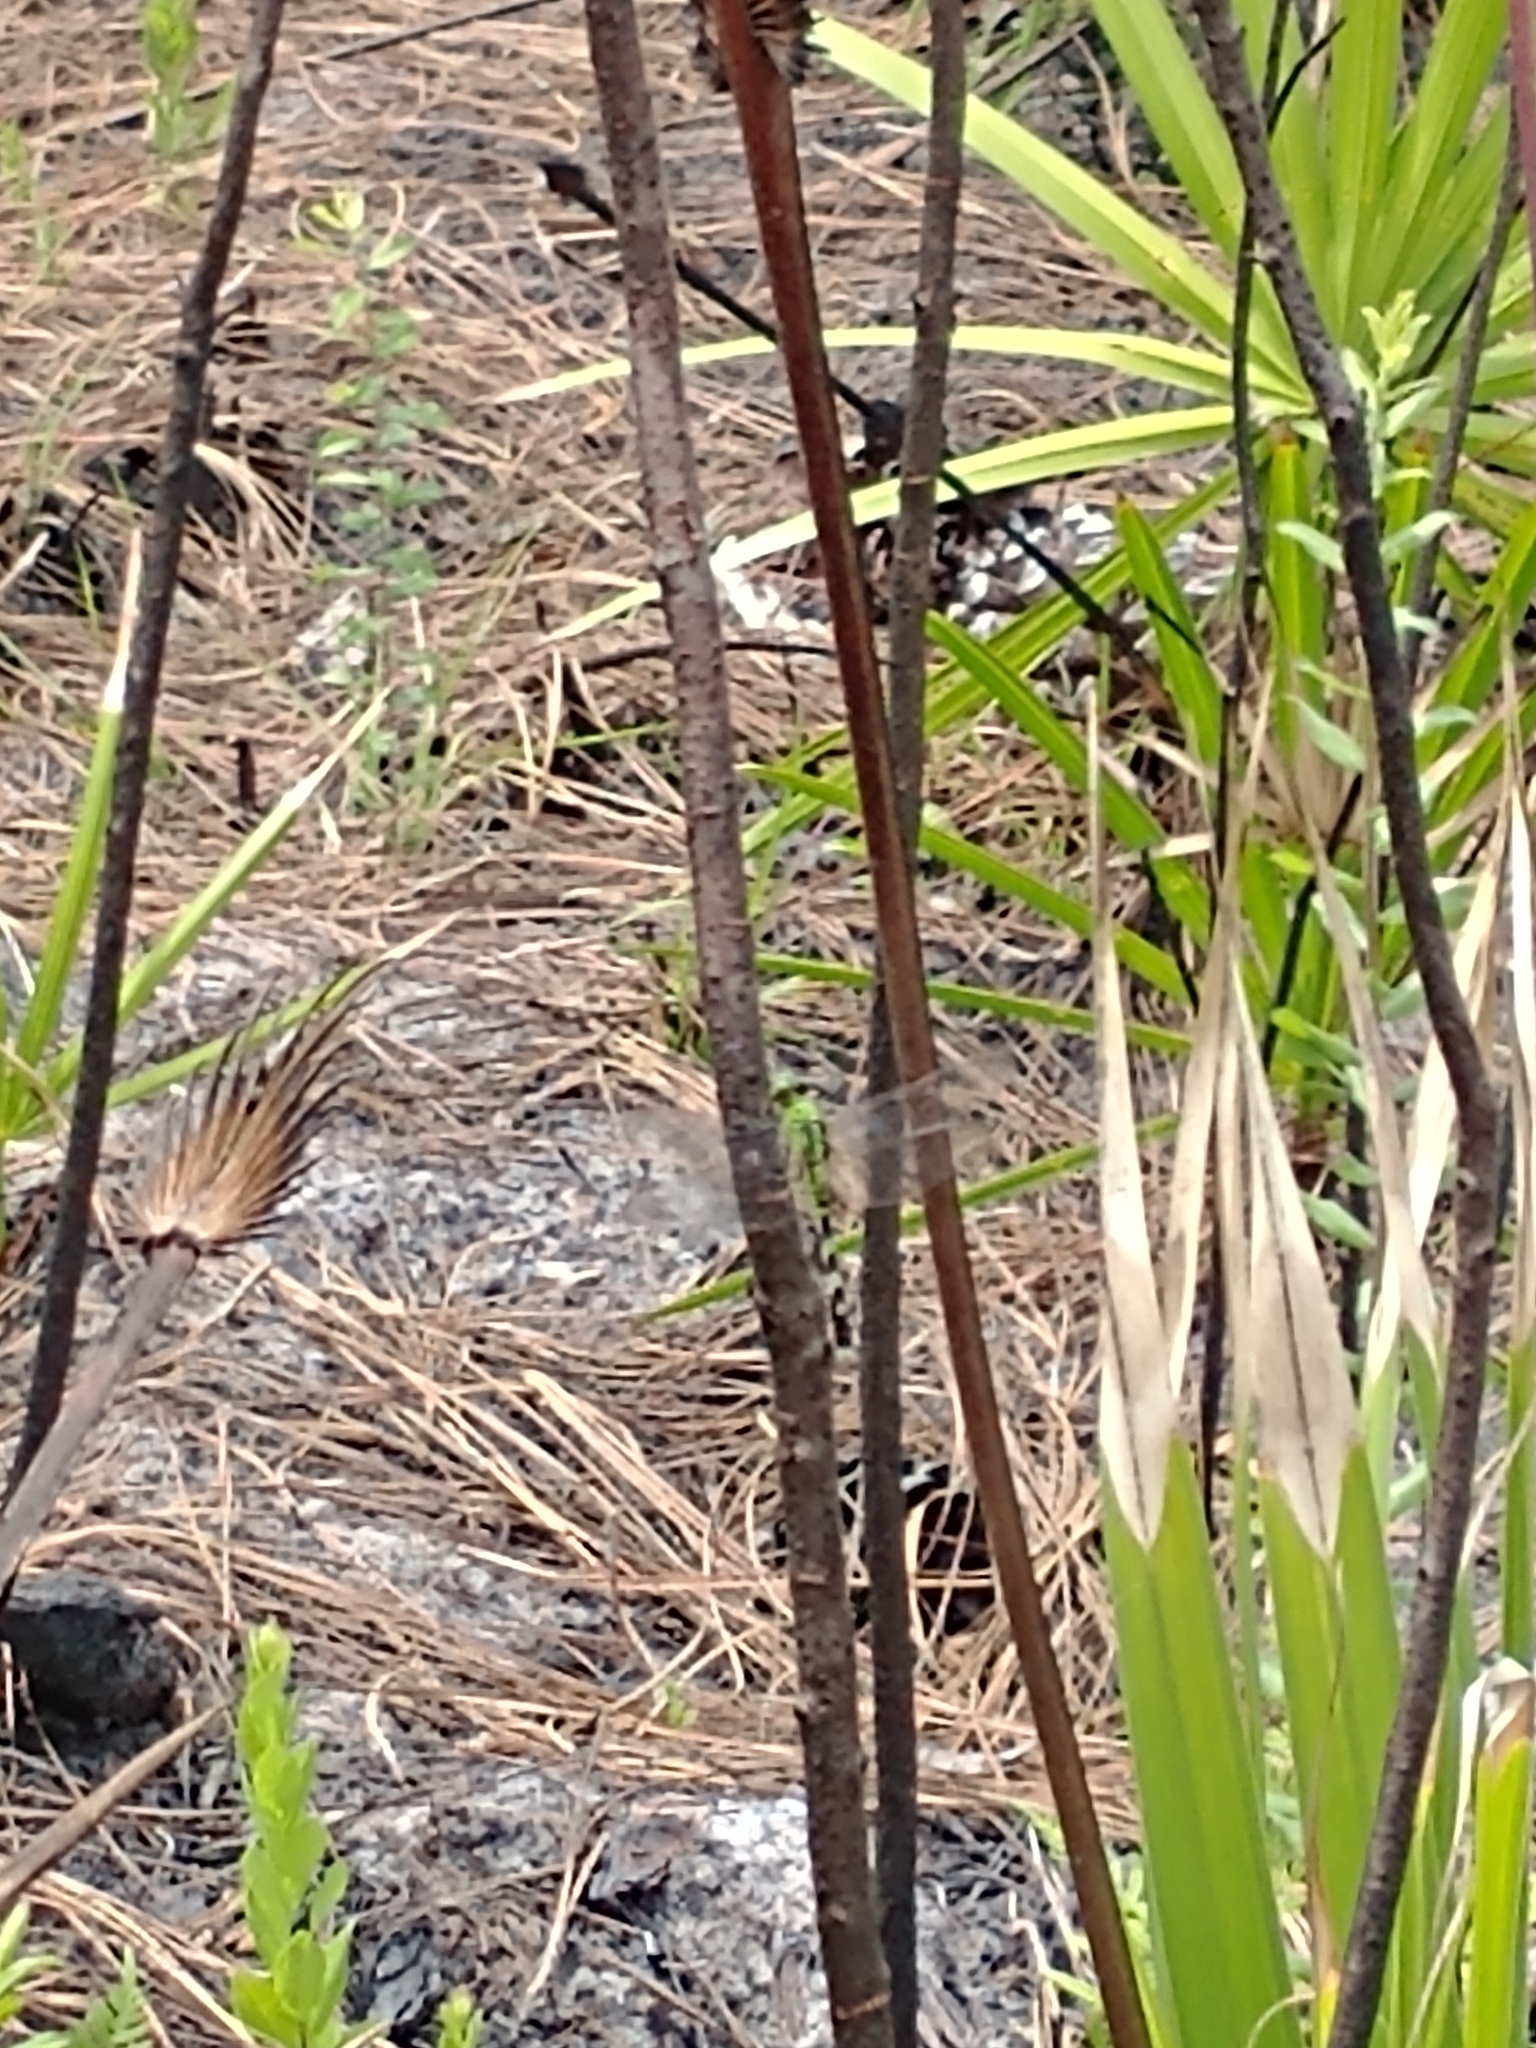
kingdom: Animalia
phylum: Arthropoda
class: Insecta
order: Odonata
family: Libellulidae
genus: Erythemis
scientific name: Erythemis simplicicollis
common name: Eastern pondhawk
